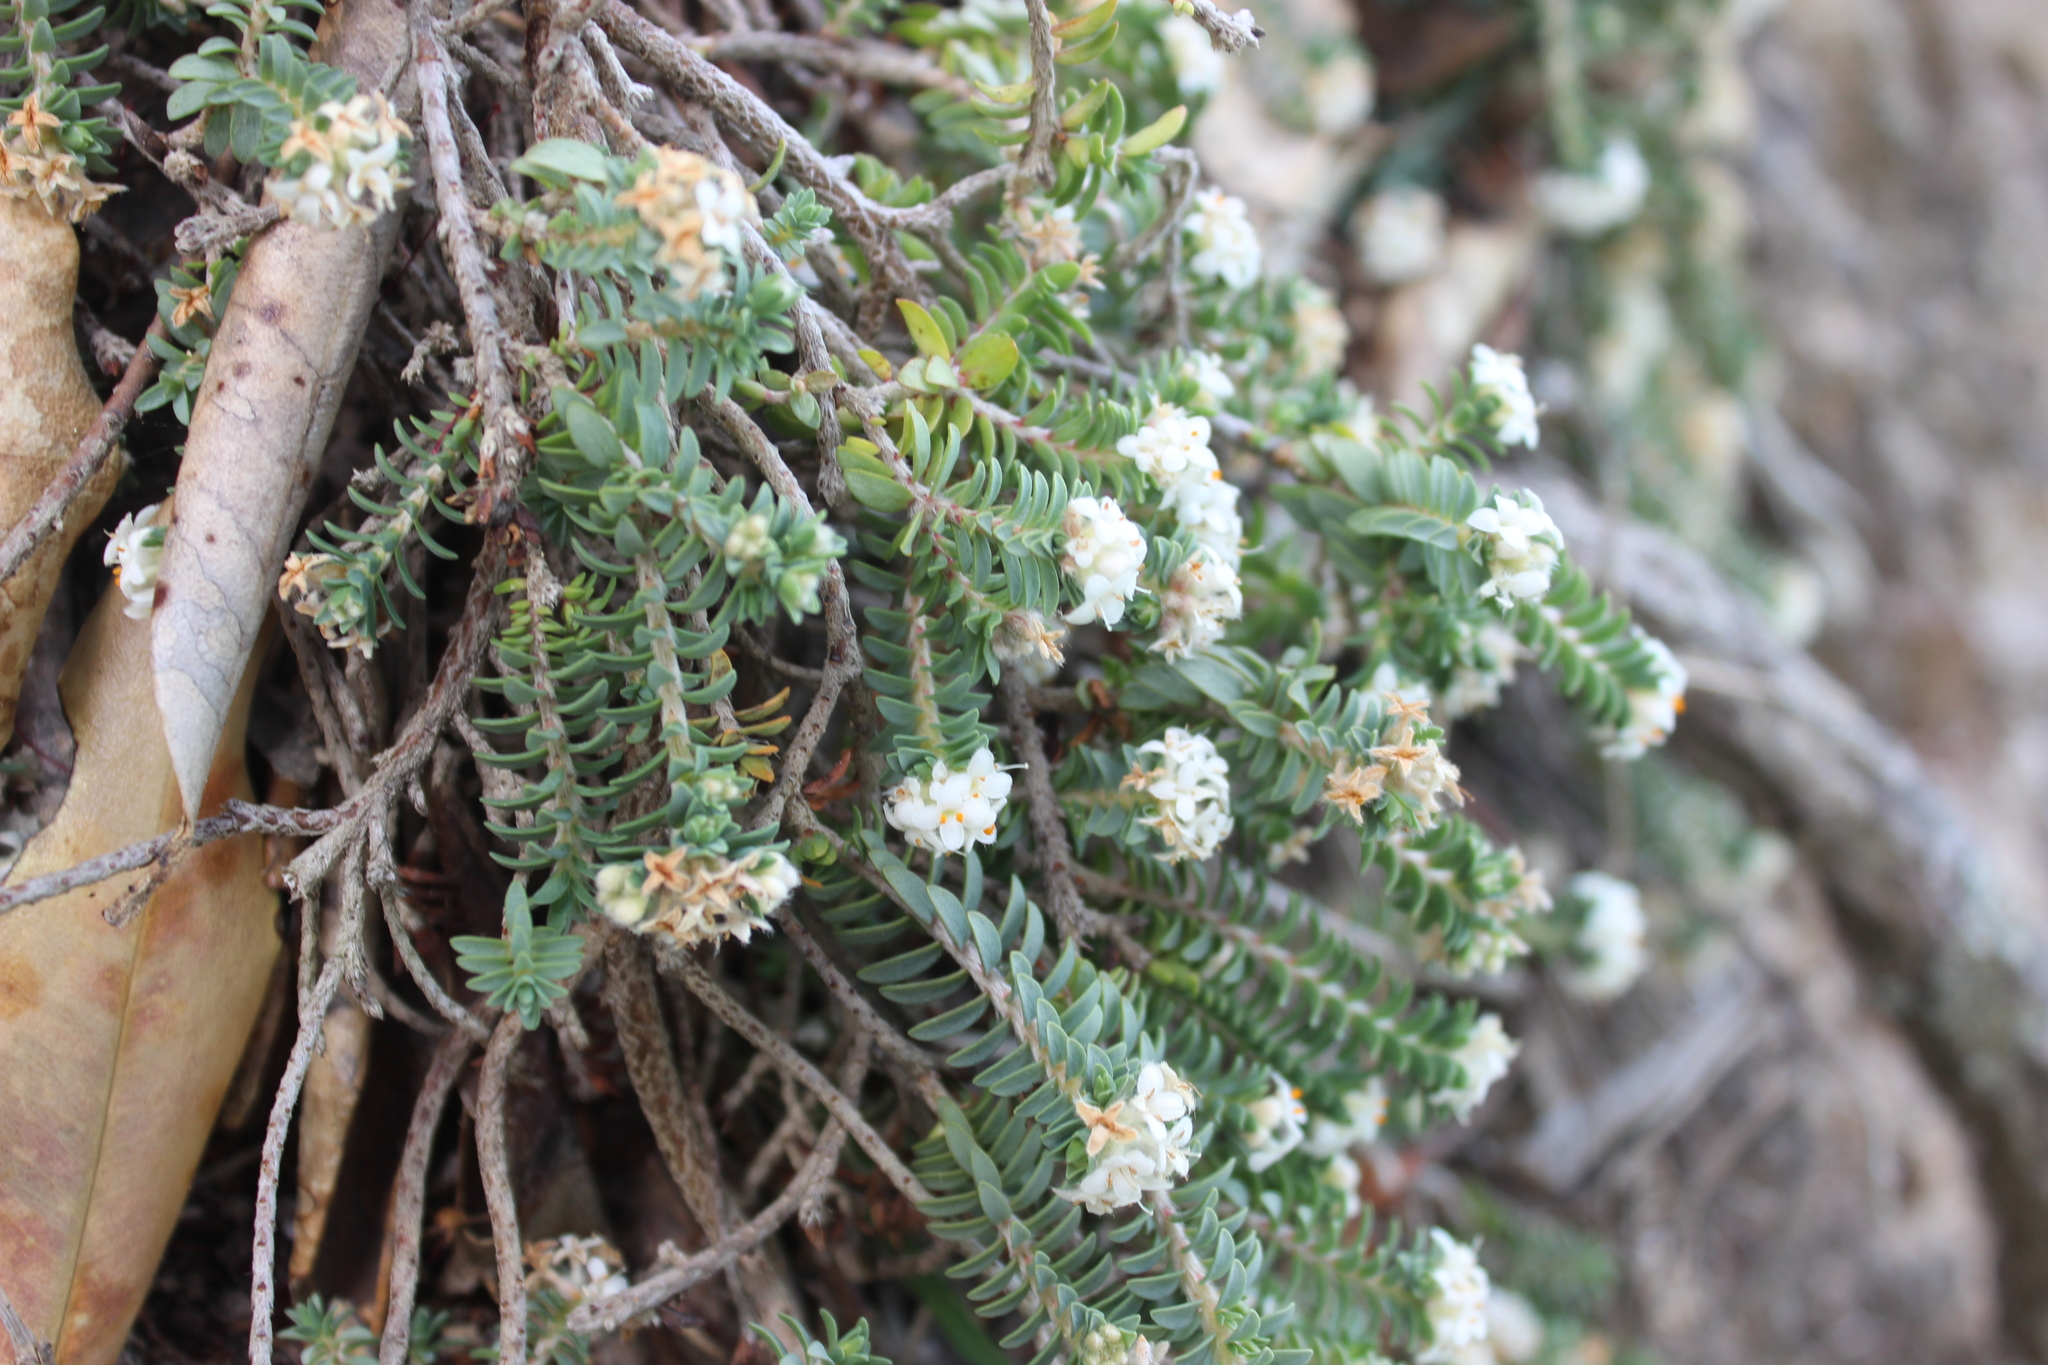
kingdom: Plantae
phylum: Tracheophyta
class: Magnoliopsida
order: Malvales
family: Thymelaeaceae
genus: Pimelea
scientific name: Pimelea urvilleana
